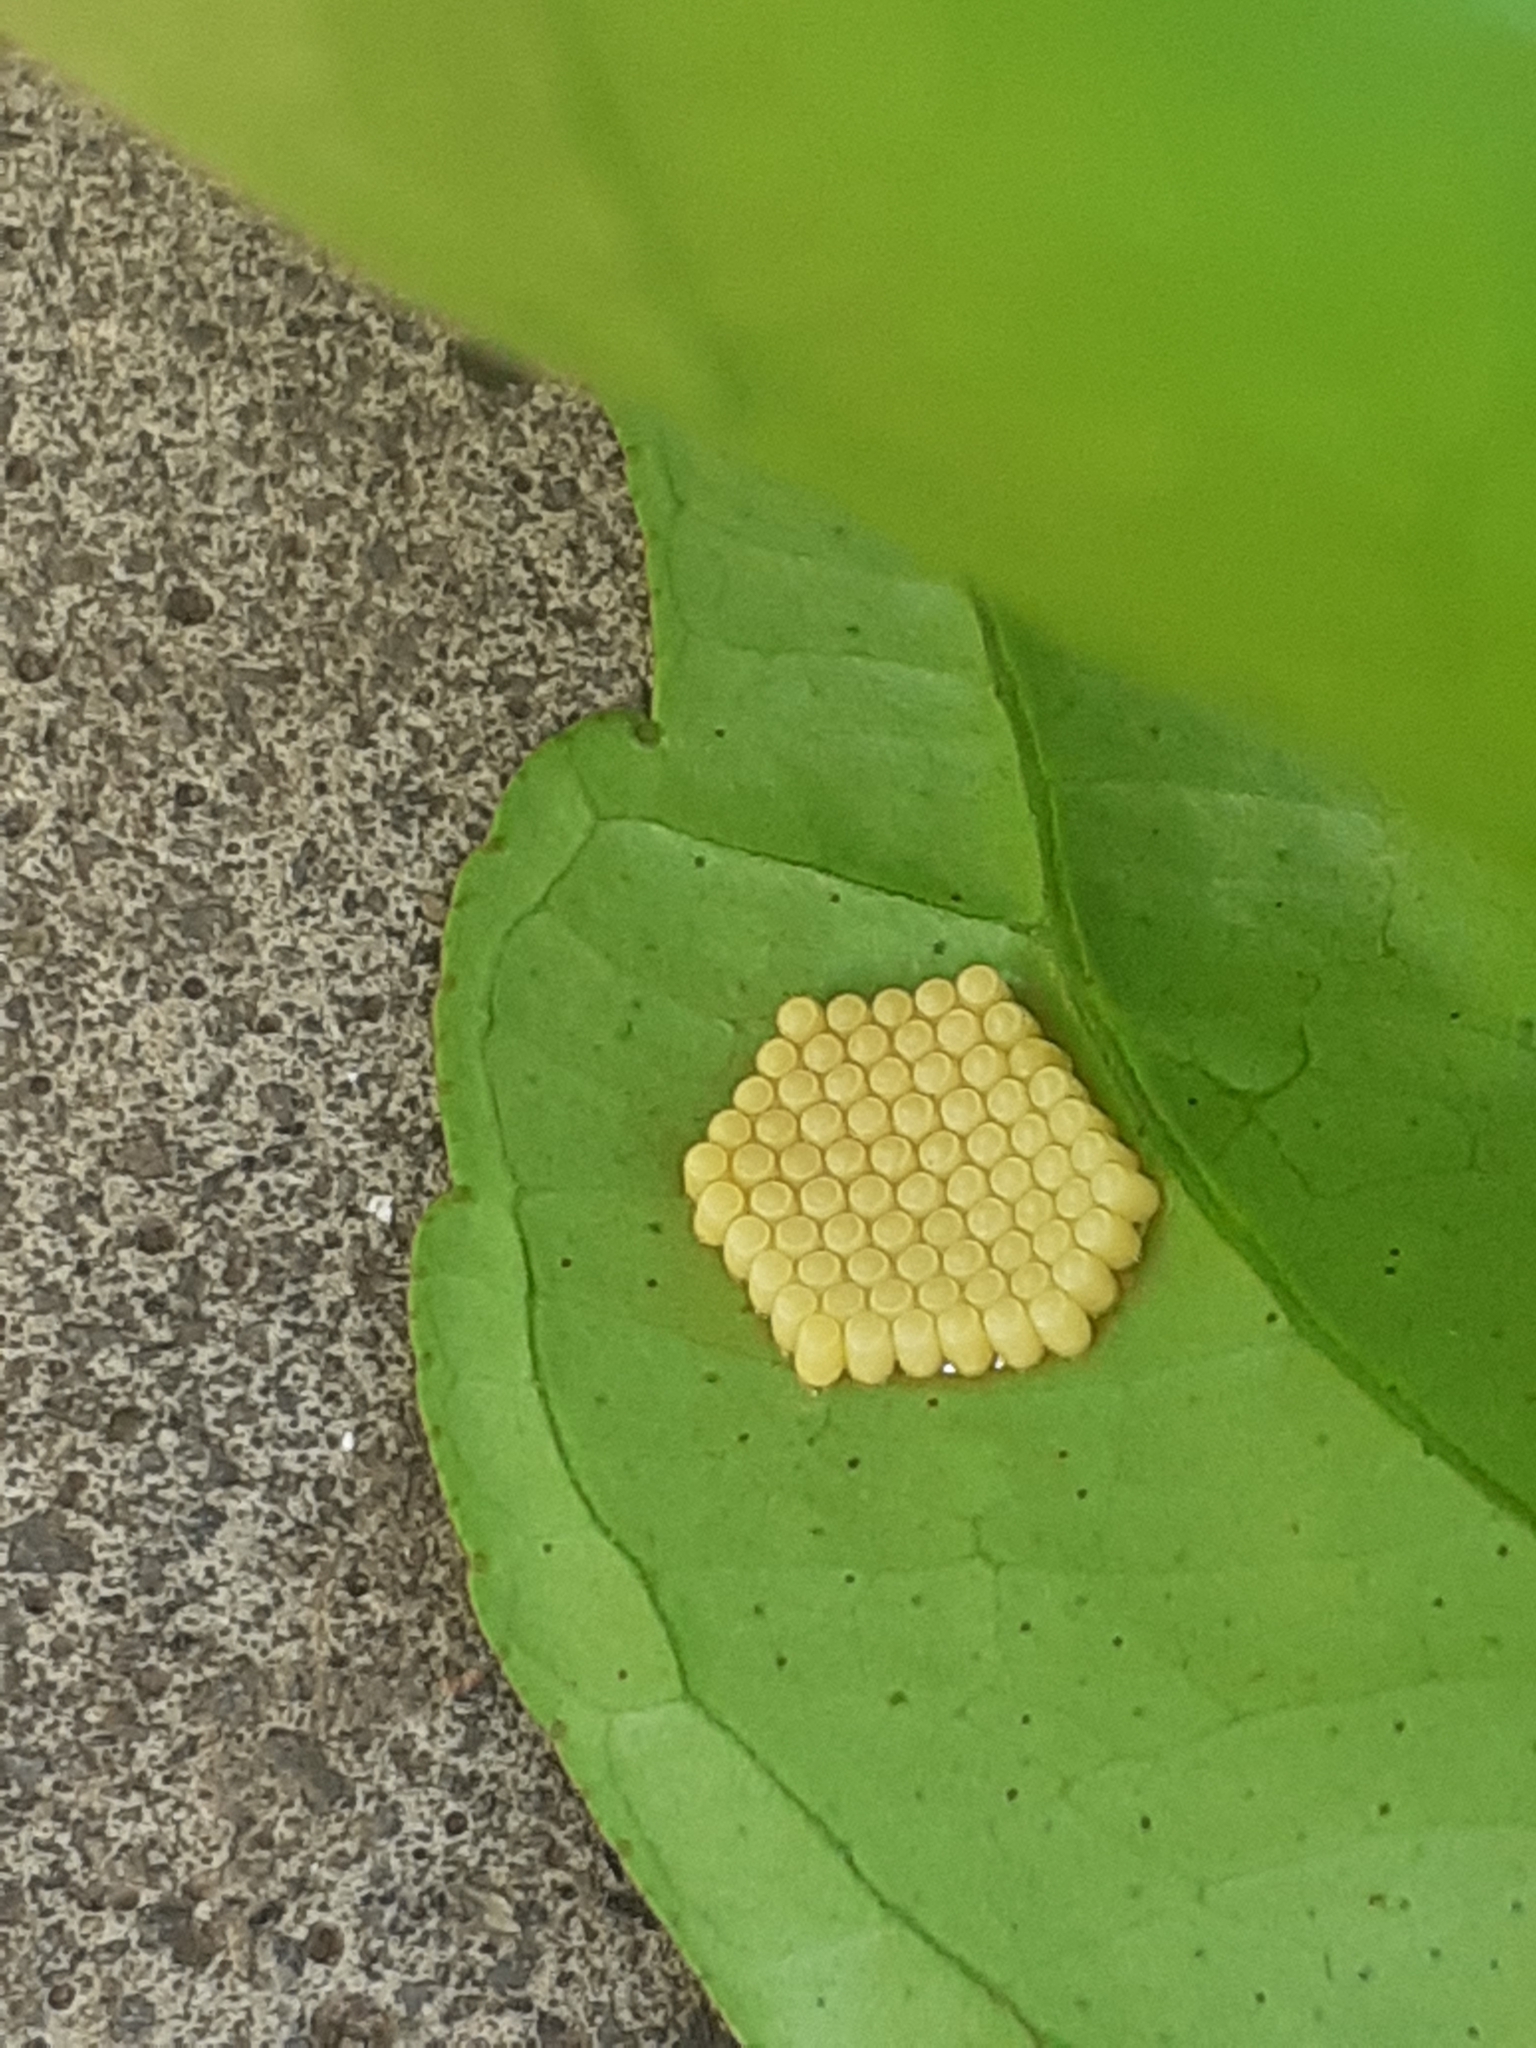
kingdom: Animalia
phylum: Arthropoda
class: Insecta
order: Hemiptera
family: Pentatomidae
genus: Nezara
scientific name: Nezara viridula
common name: Southern green stink bug
